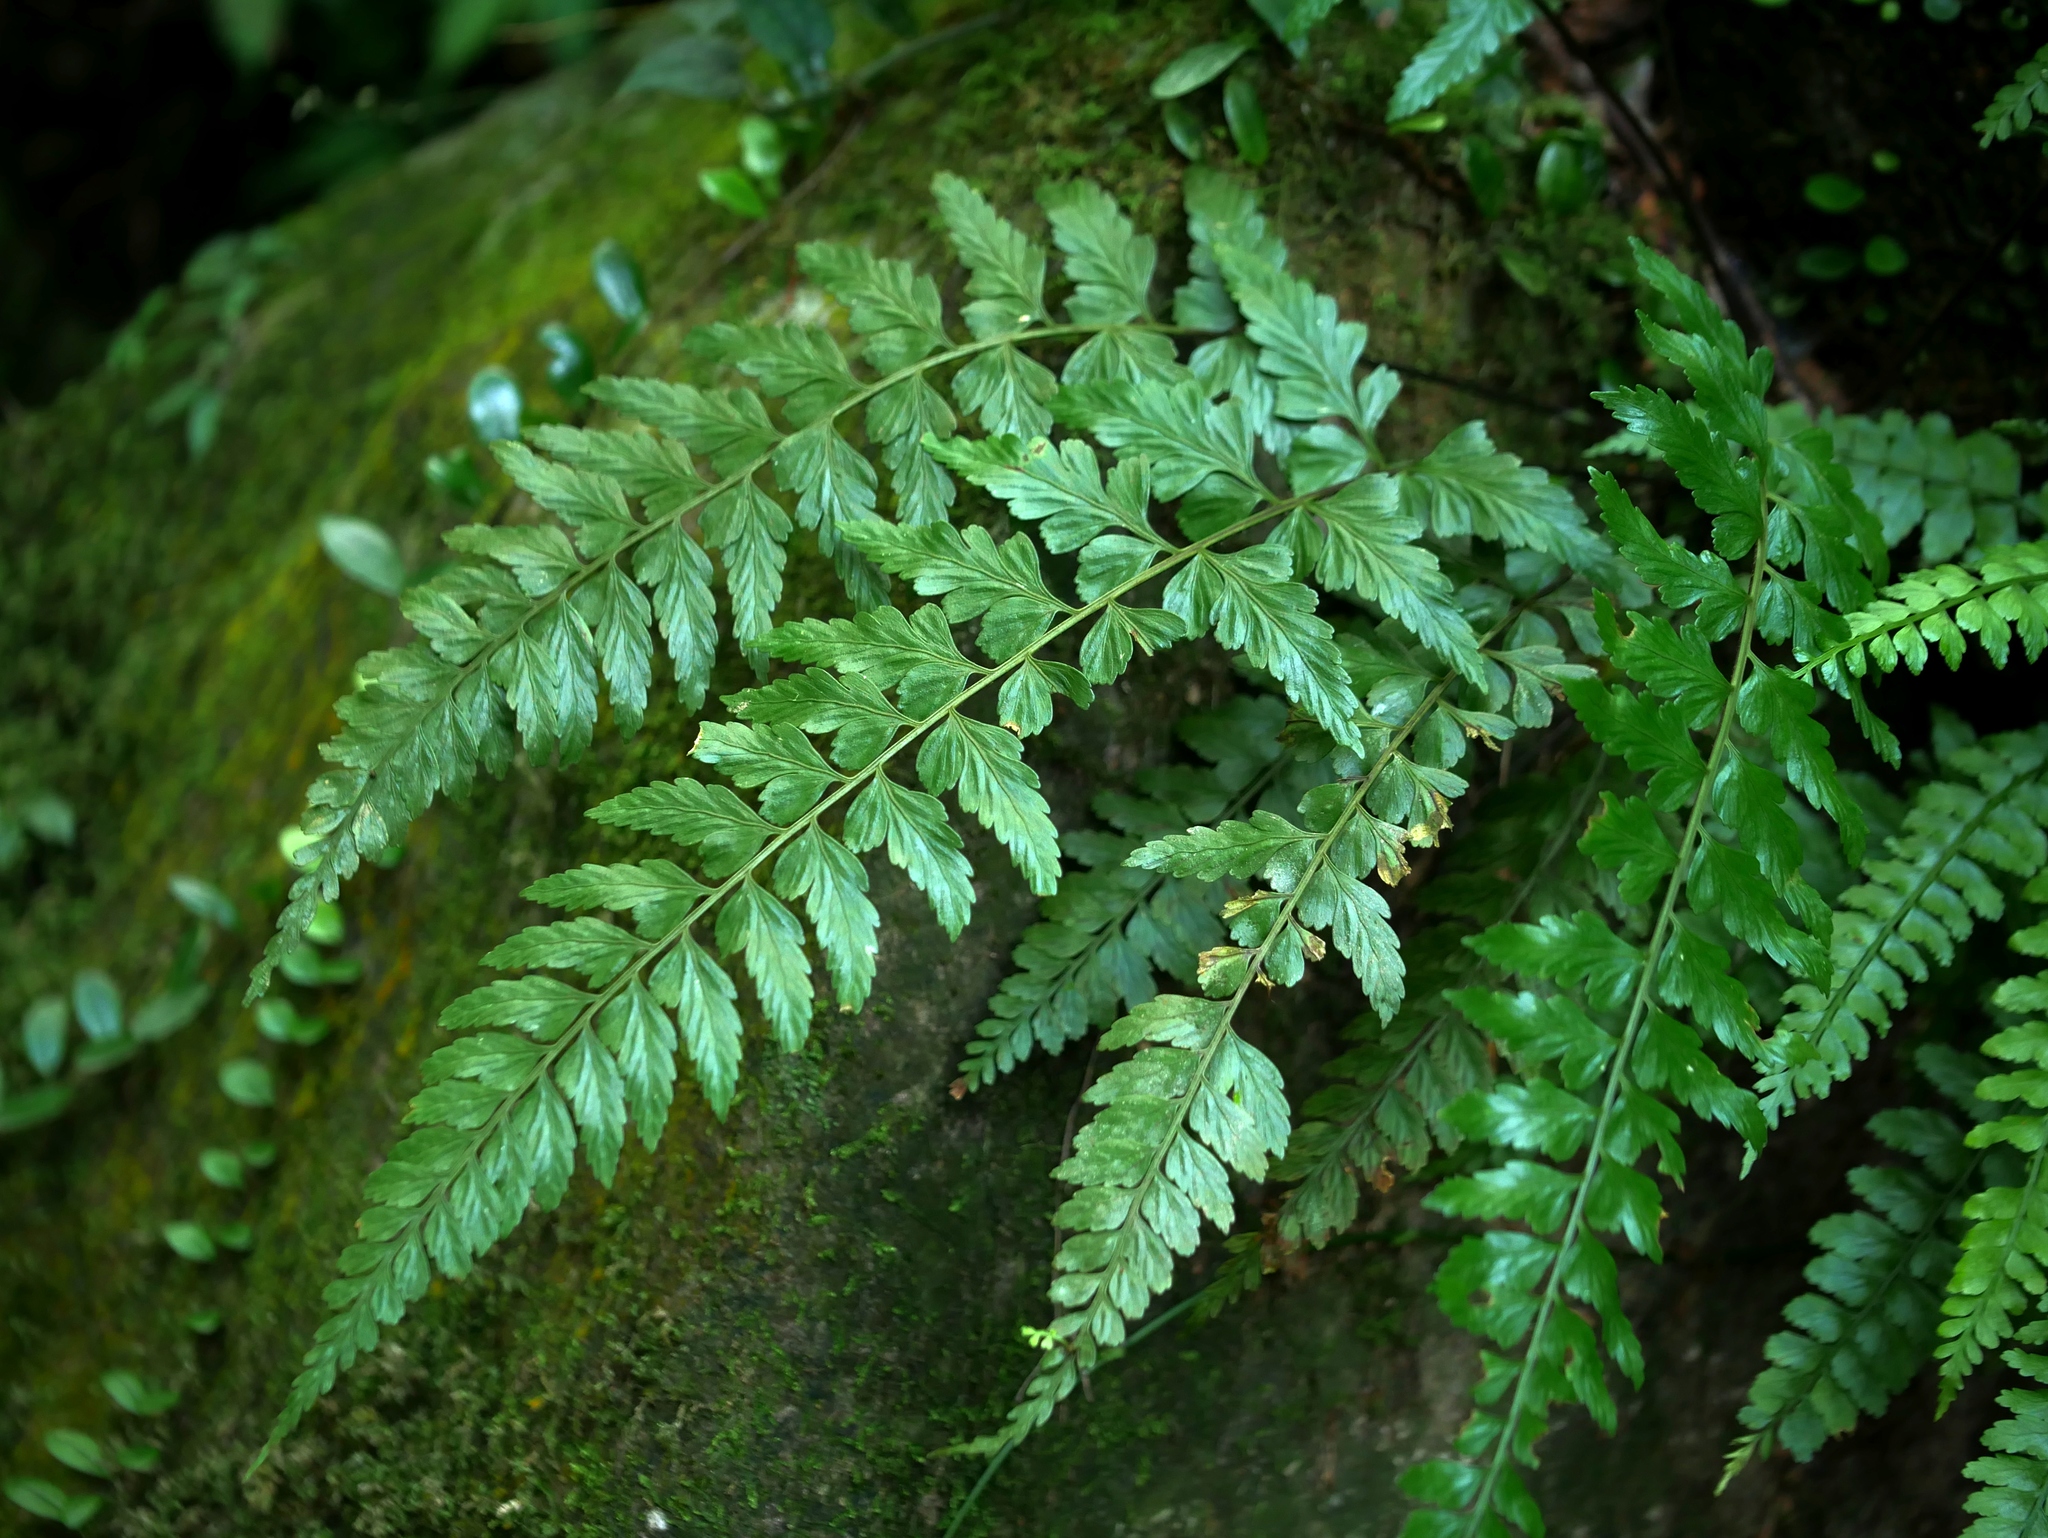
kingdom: Plantae
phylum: Tracheophyta
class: Polypodiopsida
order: Polypodiales
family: Aspleniaceae
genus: Asplenium
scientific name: Asplenium cuneatiforme
